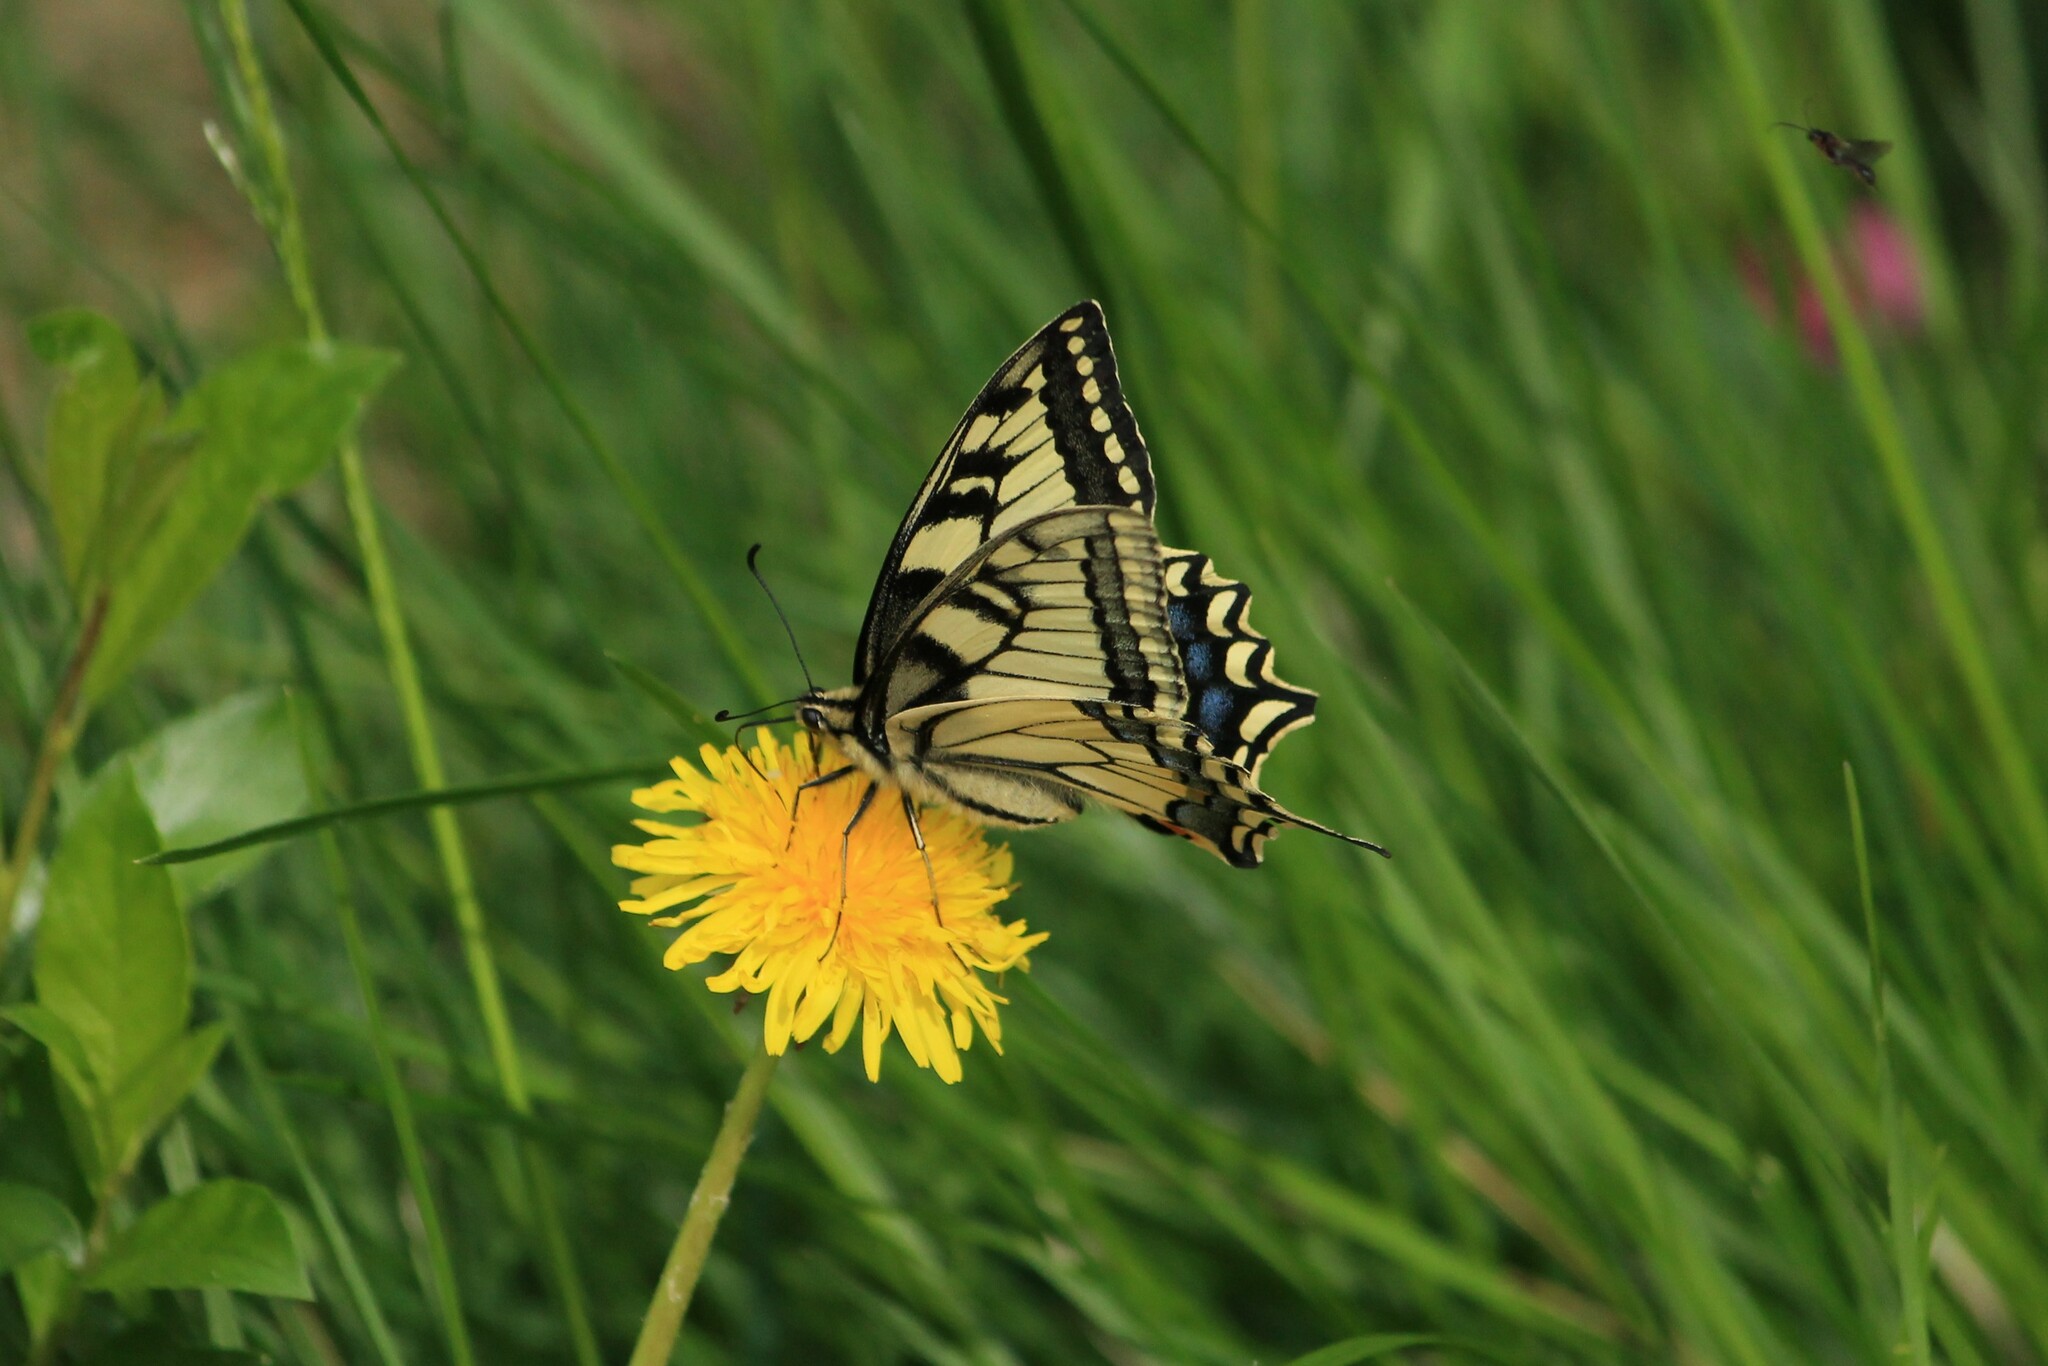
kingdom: Animalia
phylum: Arthropoda
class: Insecta
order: Lepidoptera
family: Papilionidae
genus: Papilio
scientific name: Papilio machaon
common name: Swallowtail
